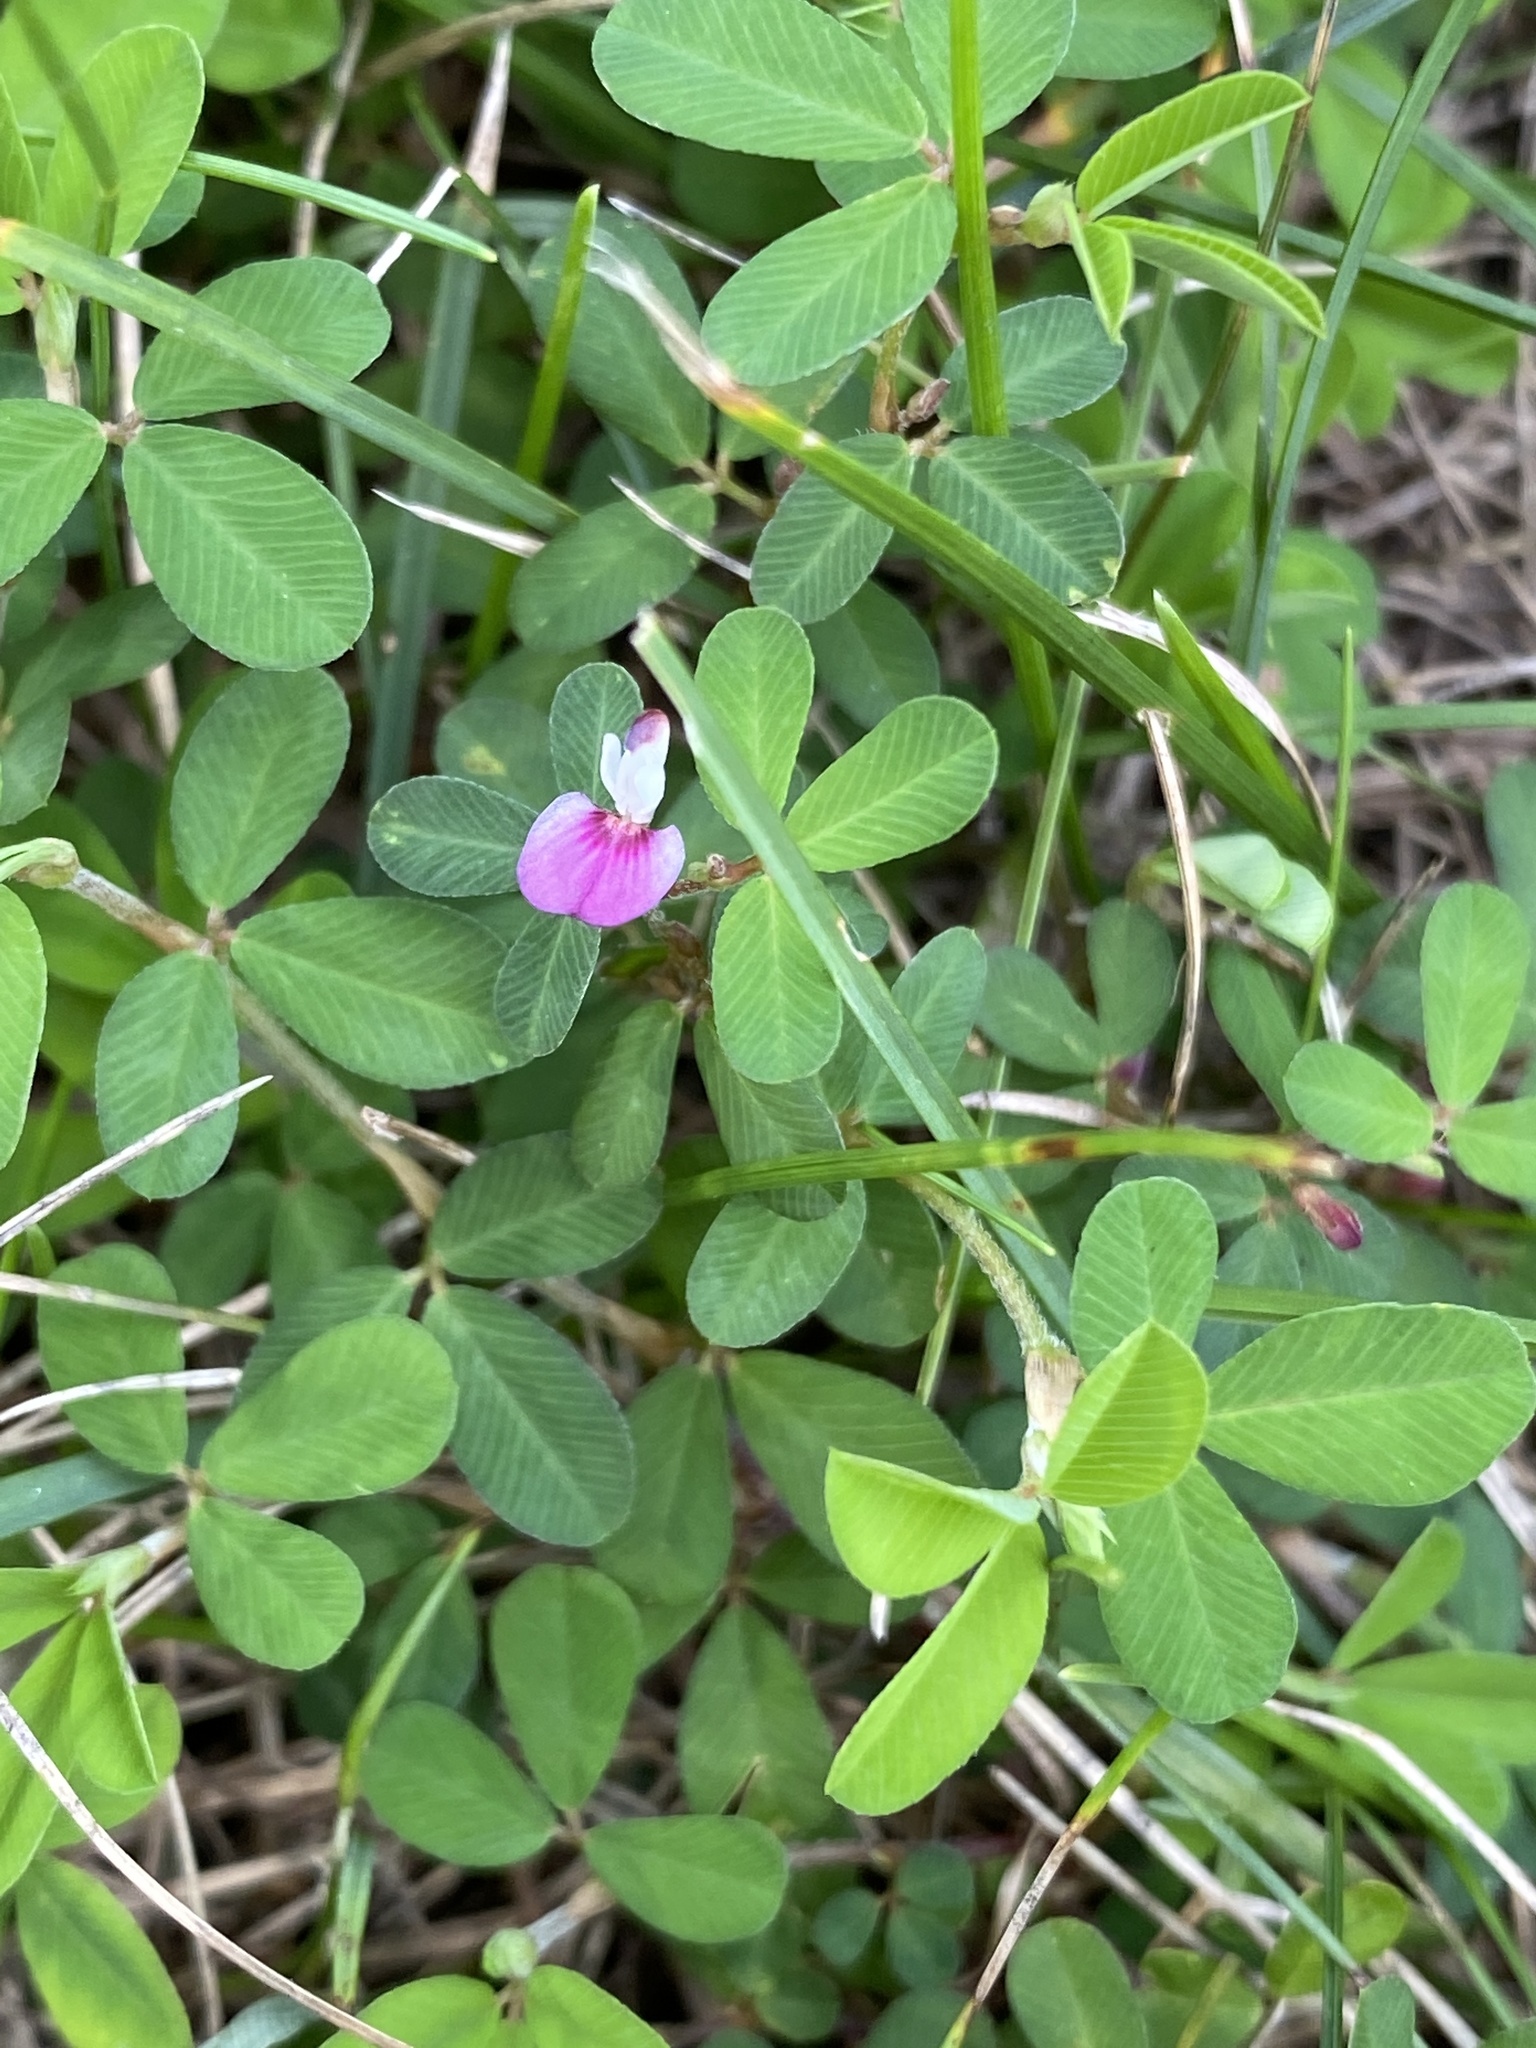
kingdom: Plantae
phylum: Tracheophyta
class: Magnoliopsida
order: Fabales
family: Fabaceae
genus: Kummerowia
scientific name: Kummerowia striata
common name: Japanese clover
